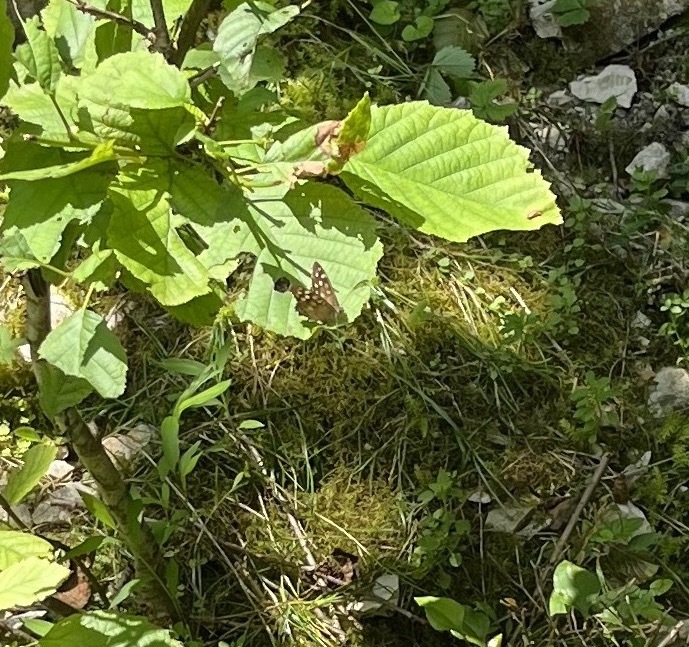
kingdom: Animalia
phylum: Arthropoda
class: Insecta
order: Lepidoptera
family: Nymphalidae
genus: Pararge
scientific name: Pararge aegeria
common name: Speckled wood
